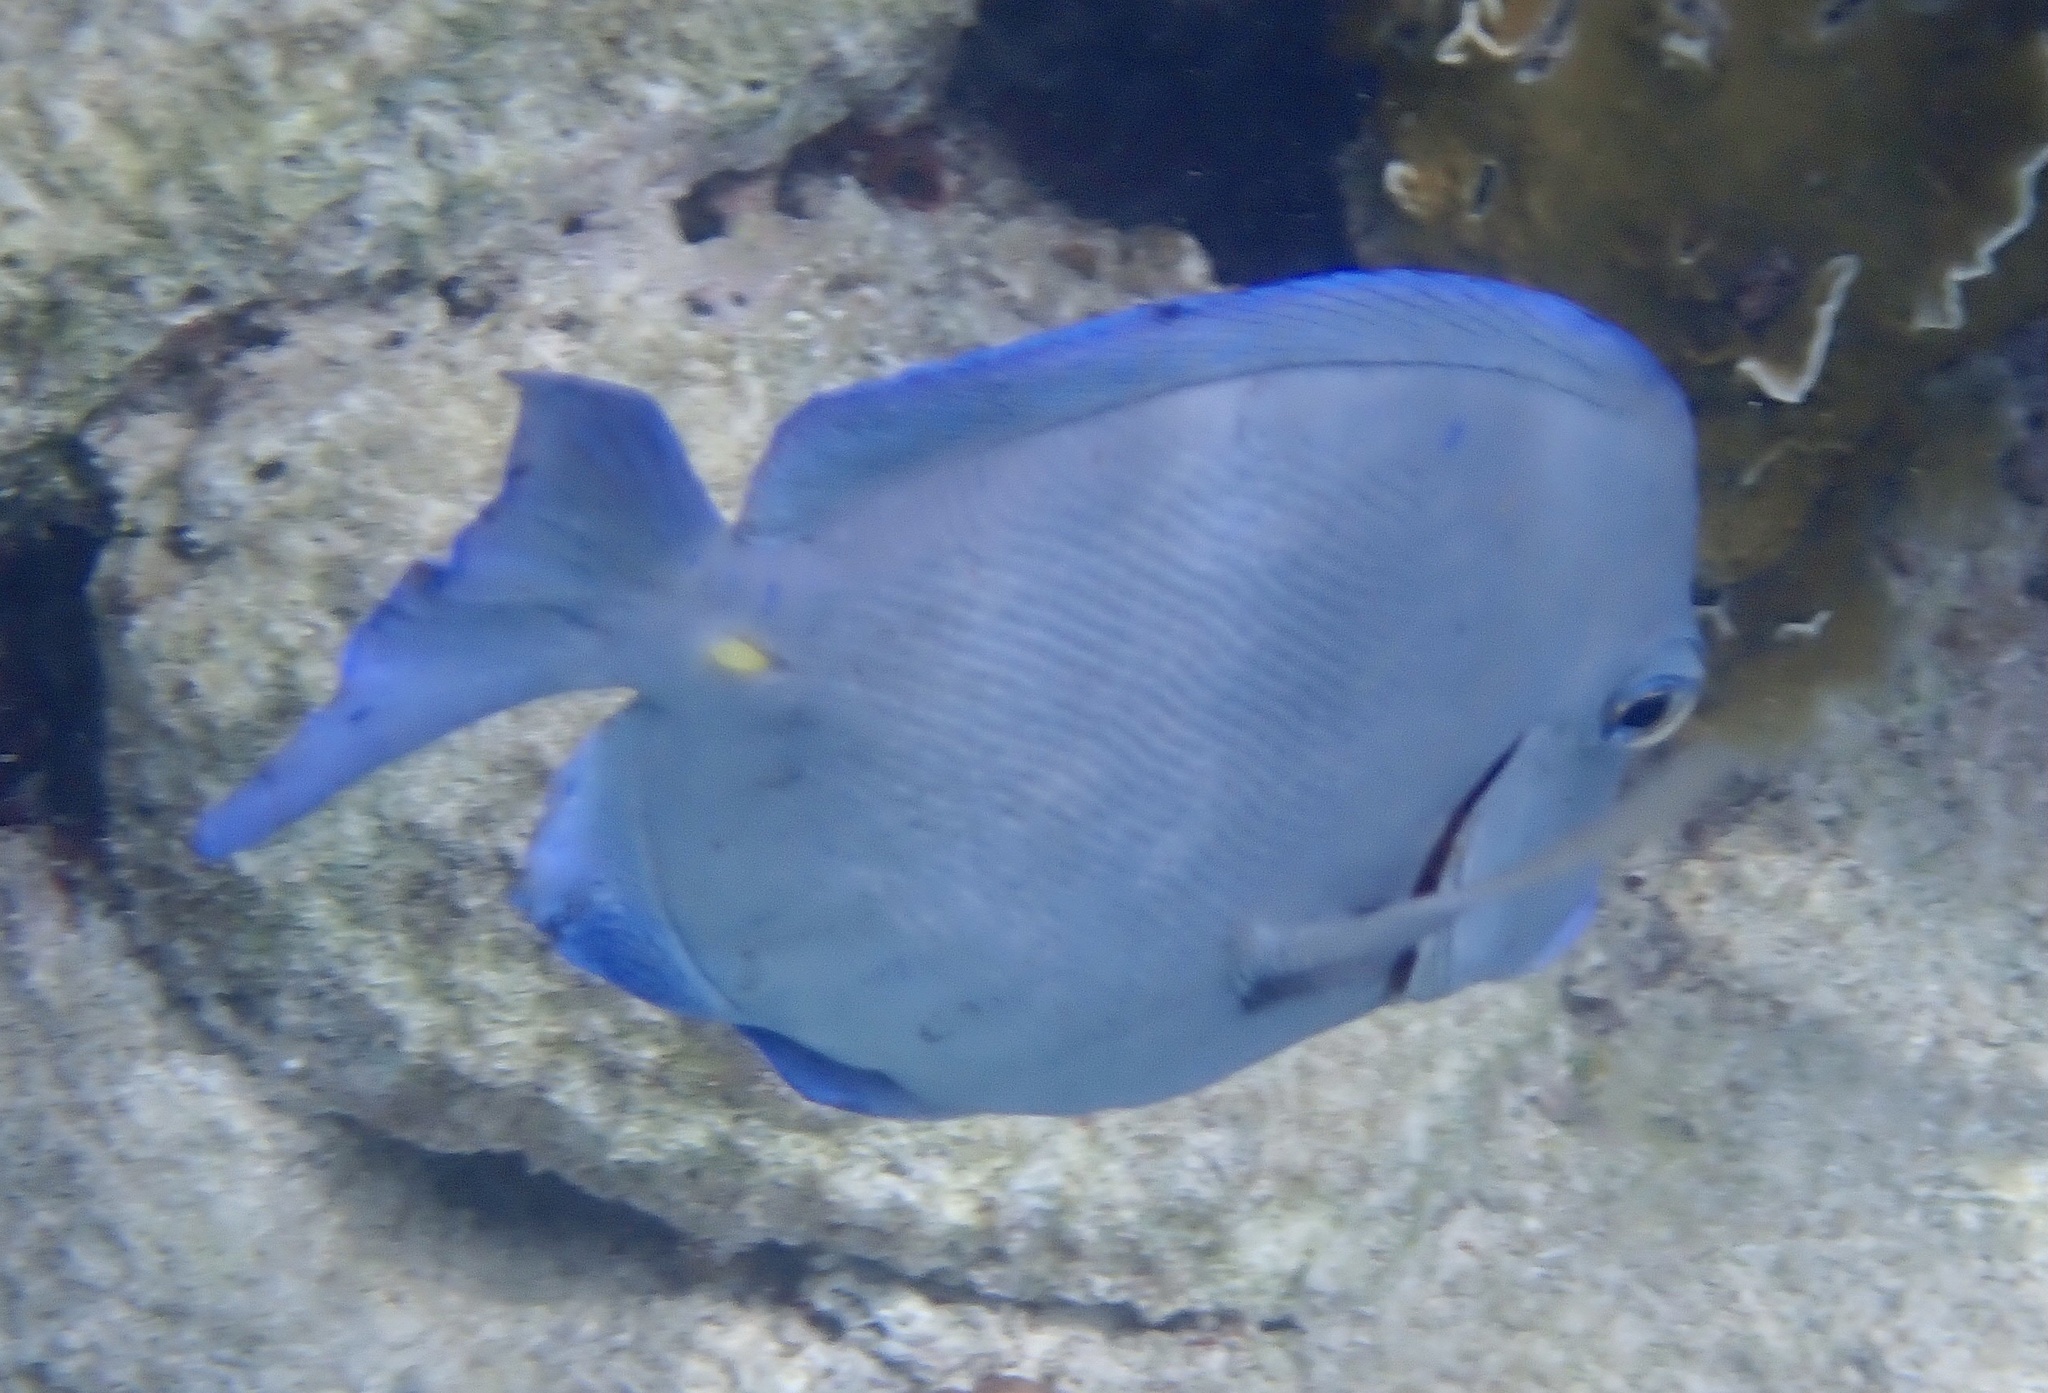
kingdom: Animalia
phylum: Chordata
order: Perciformes
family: Acanthuridae
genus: Acanthurus
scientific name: Acanthurus coeruleus
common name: Blue tang
